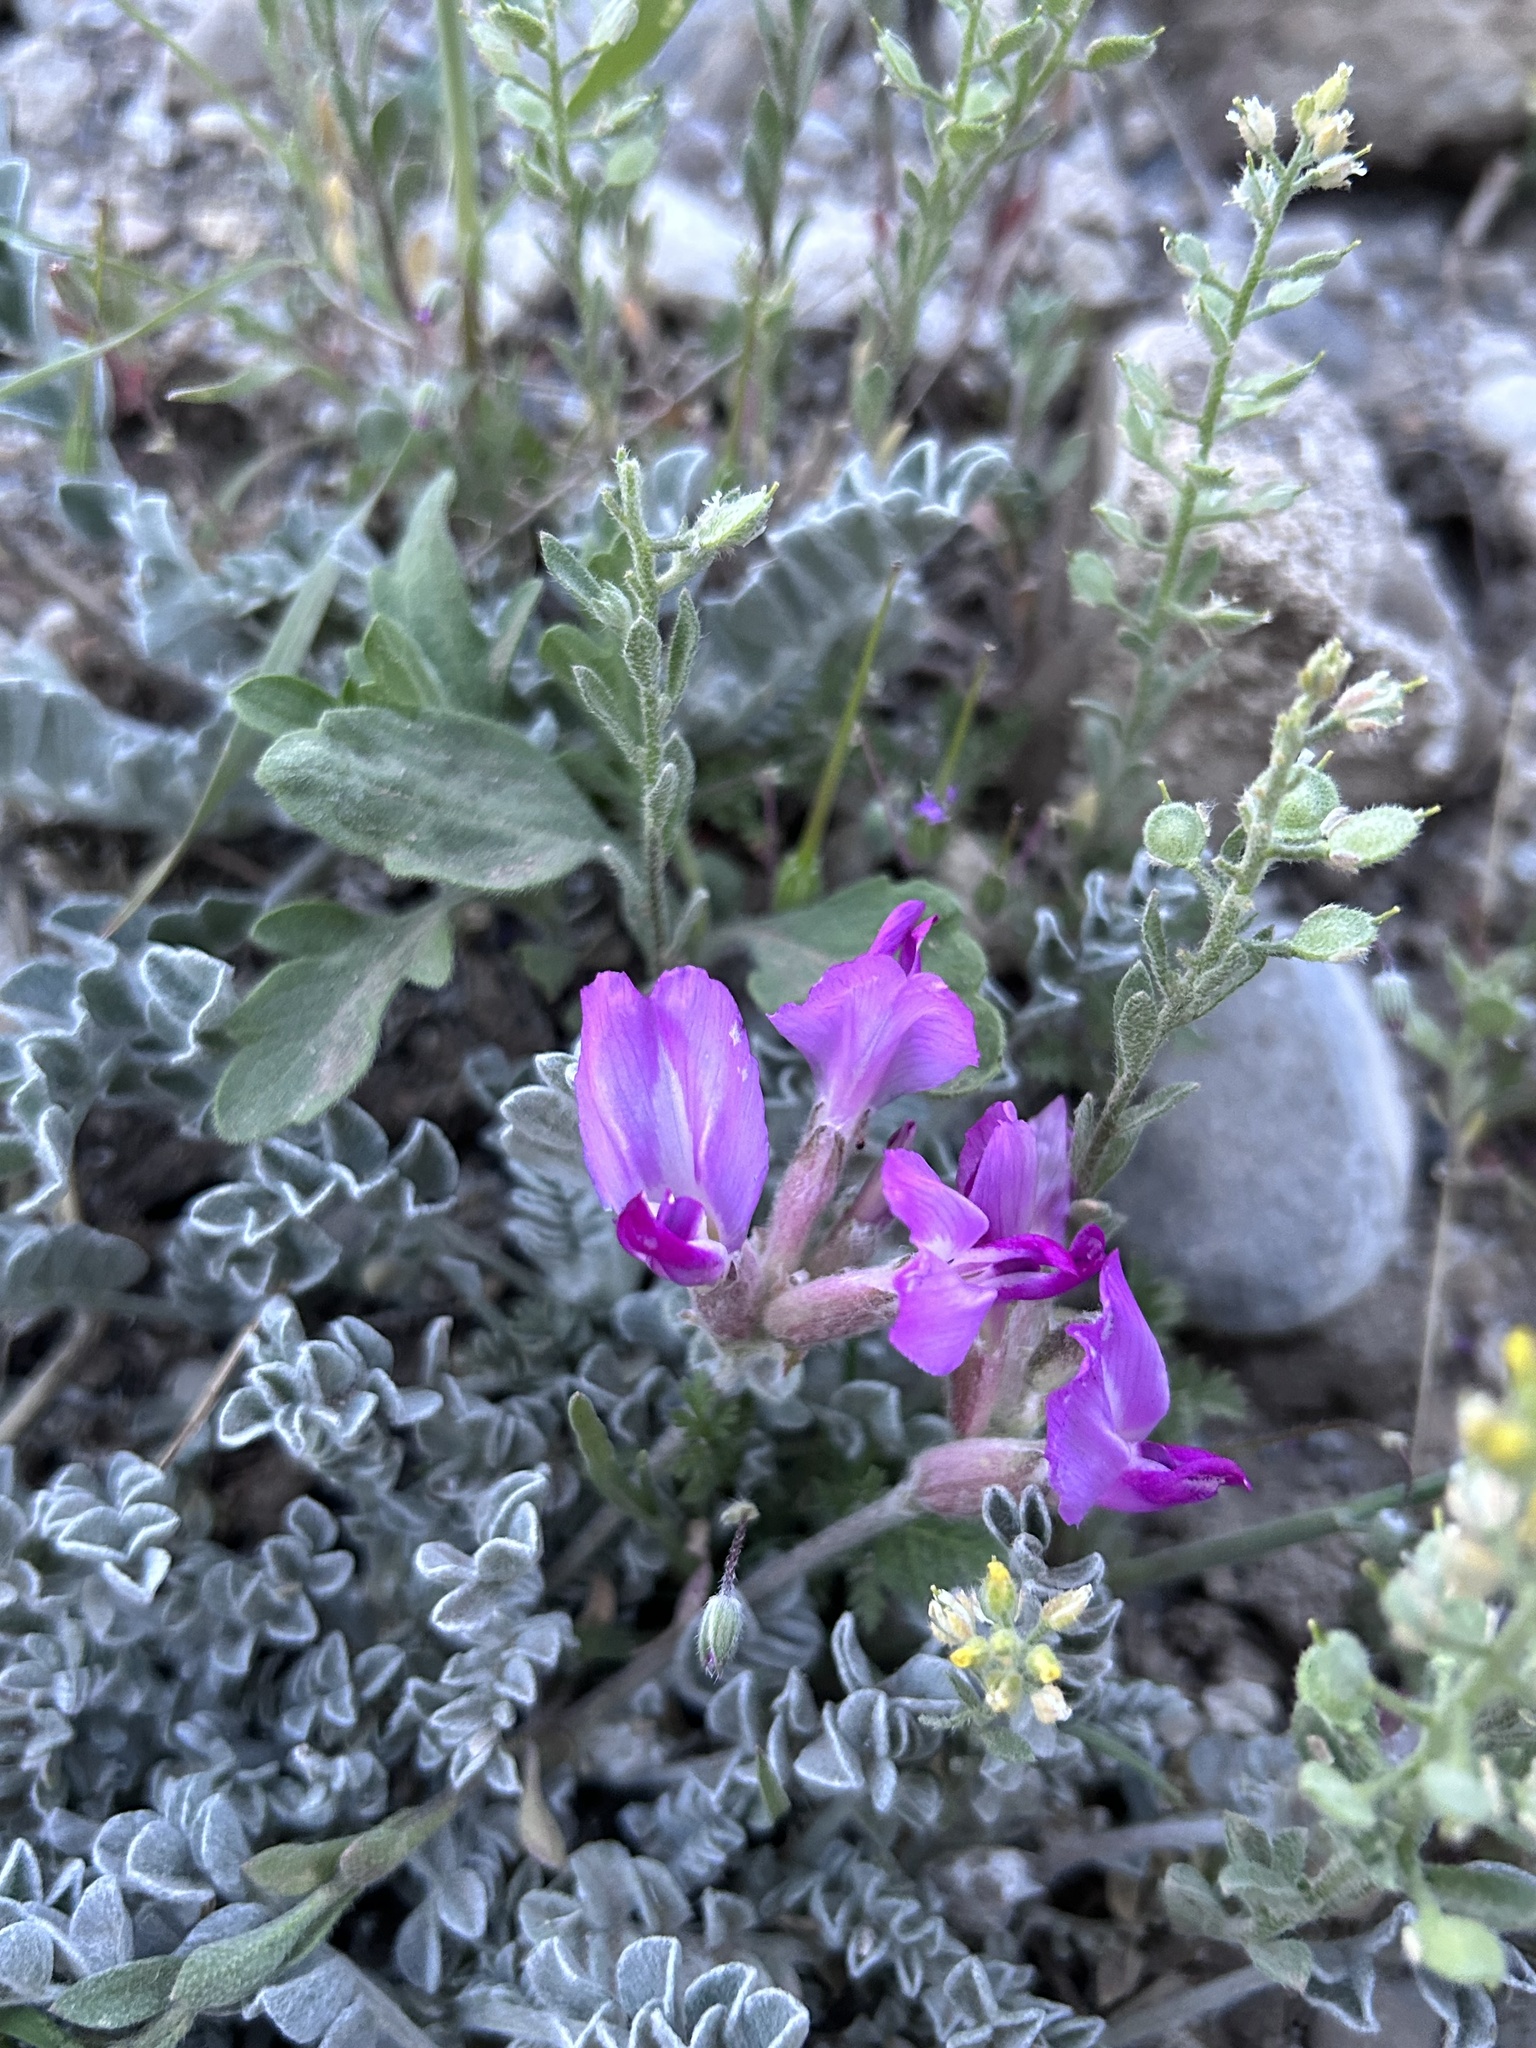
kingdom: Plantae
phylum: Tracheophyta
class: Magnoliopsida
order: Fabales
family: Fabaceae
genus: Astragalus
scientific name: Astragalus utahensis
